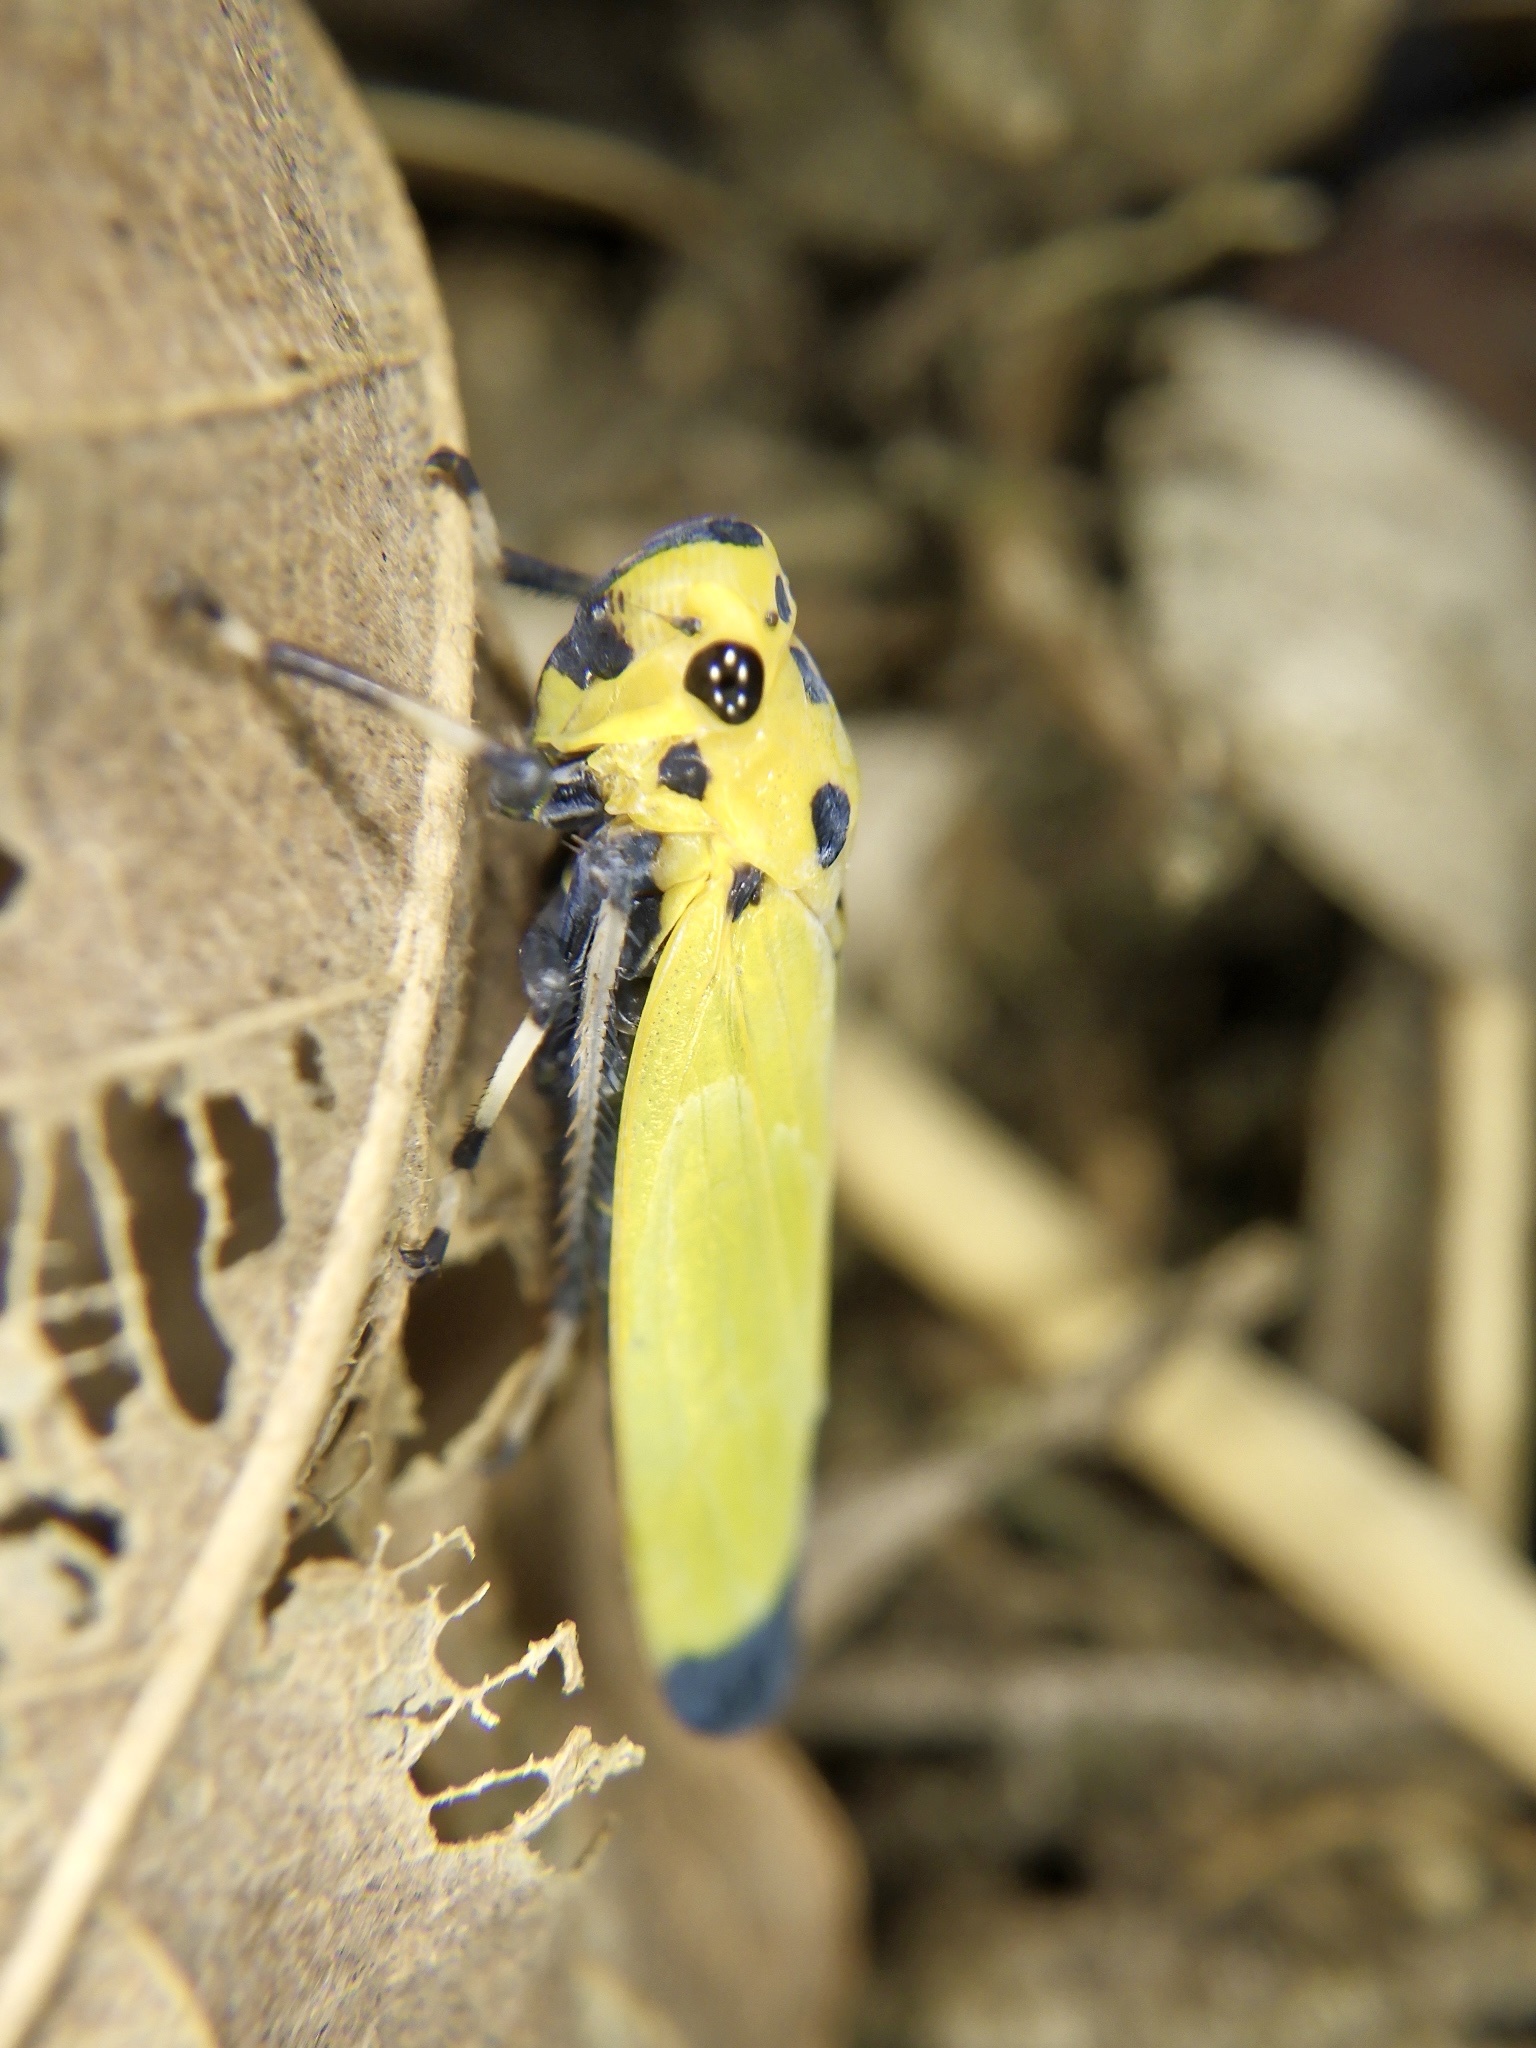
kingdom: Animalia
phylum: Arthropoda
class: Insecta
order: Hemiptera
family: Cicadellidae
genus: Bothrogonia
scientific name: Bothrogonia ferruginea
